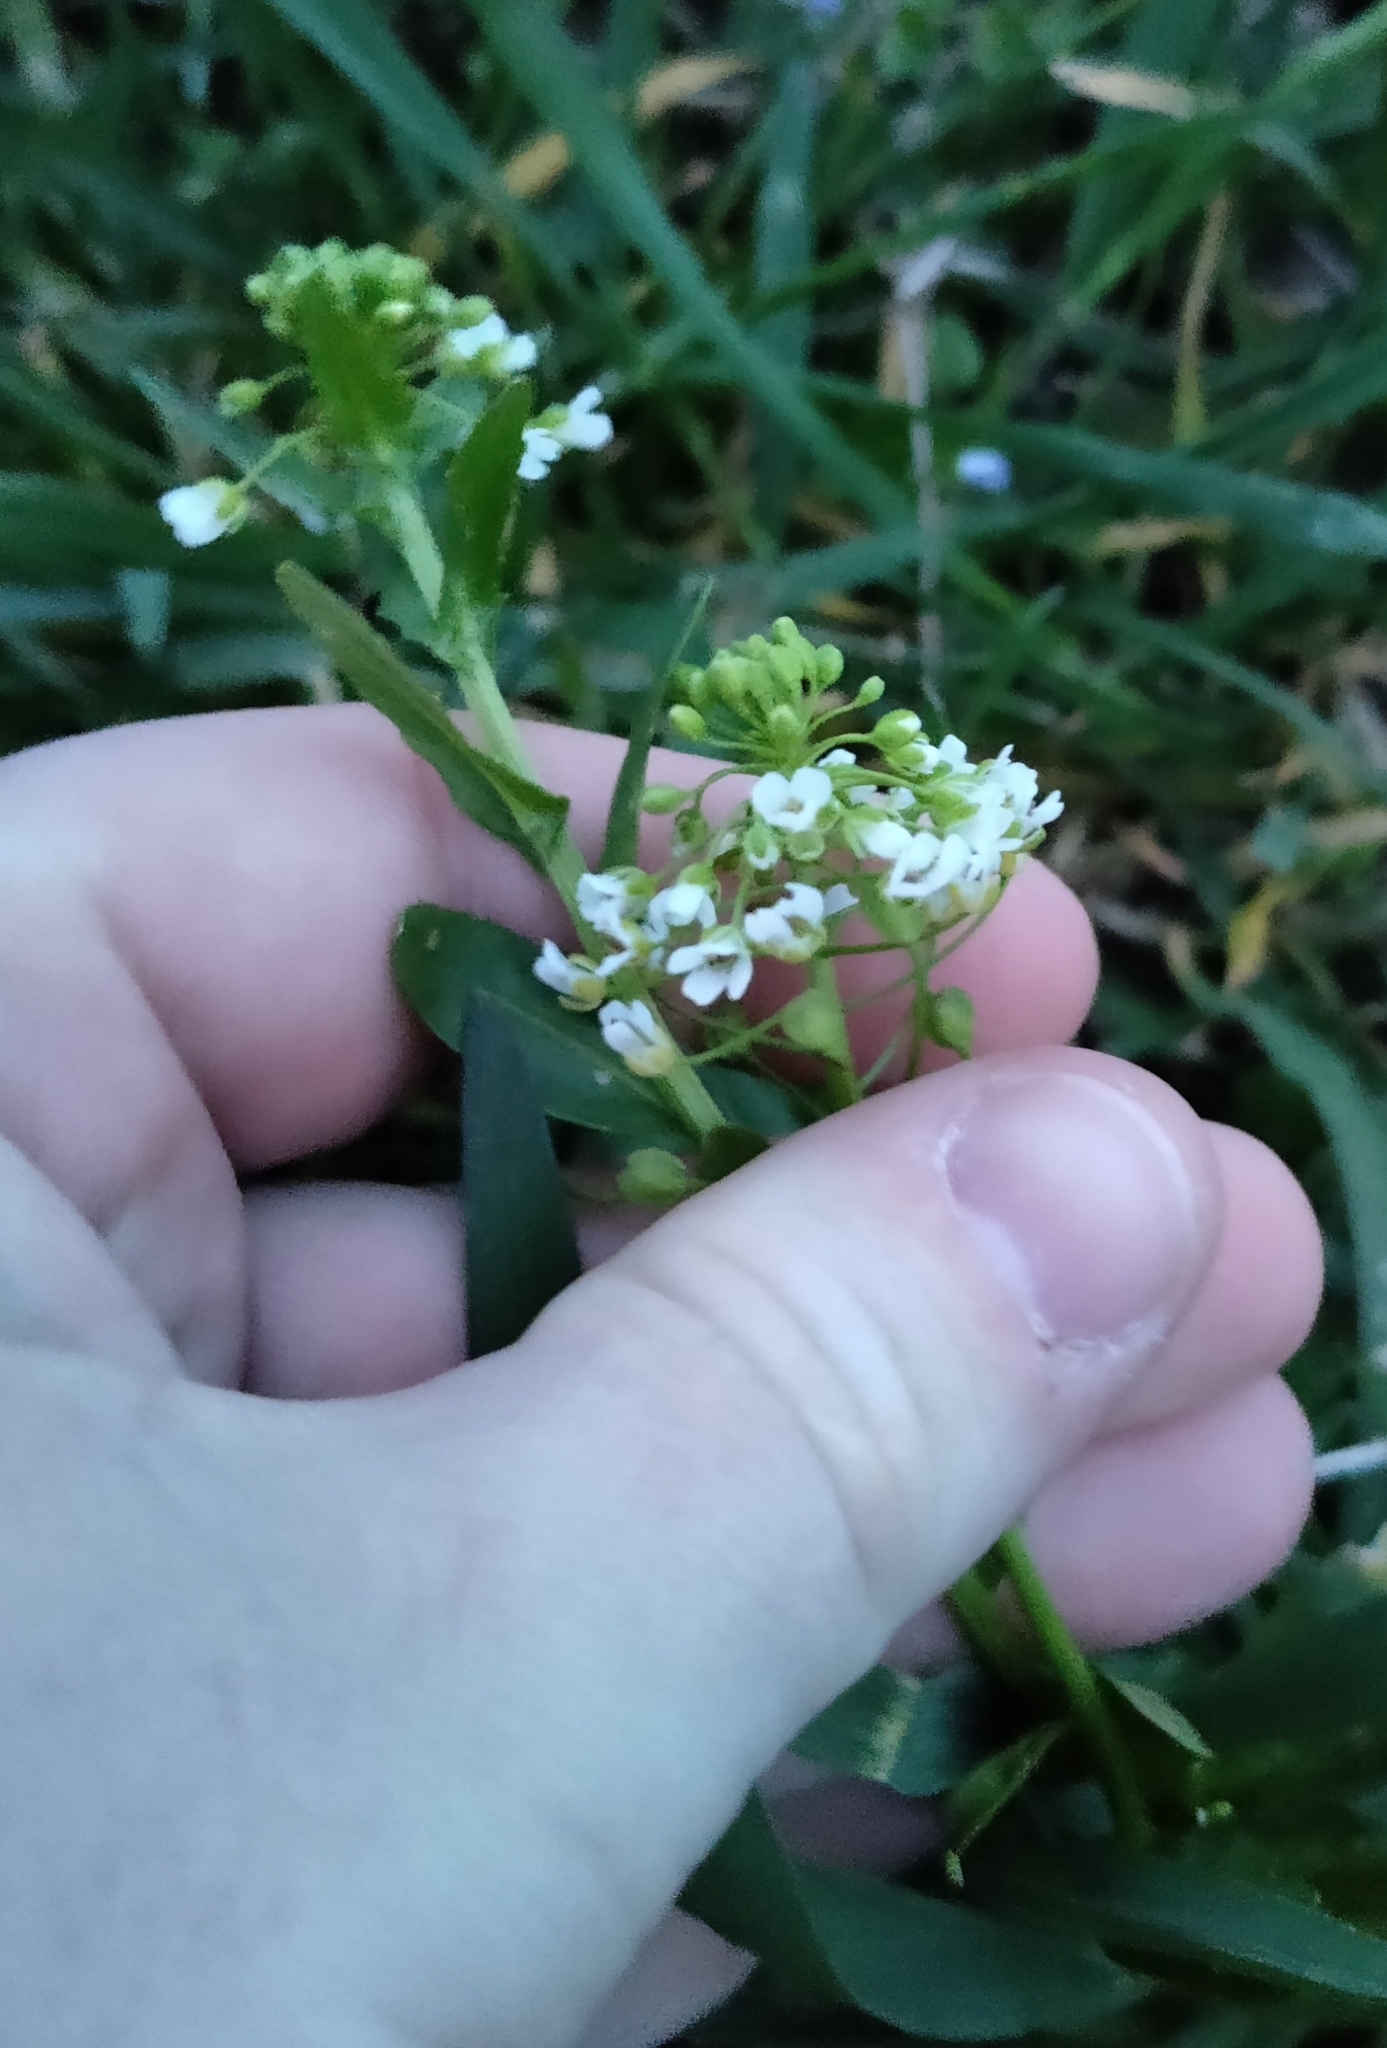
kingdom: Plantae
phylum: Tracheophyta
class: Magnoliopsida
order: Brassicales
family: Brassicaceae
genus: Thlaspi
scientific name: Thlaspi arvense
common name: Field pennycress
